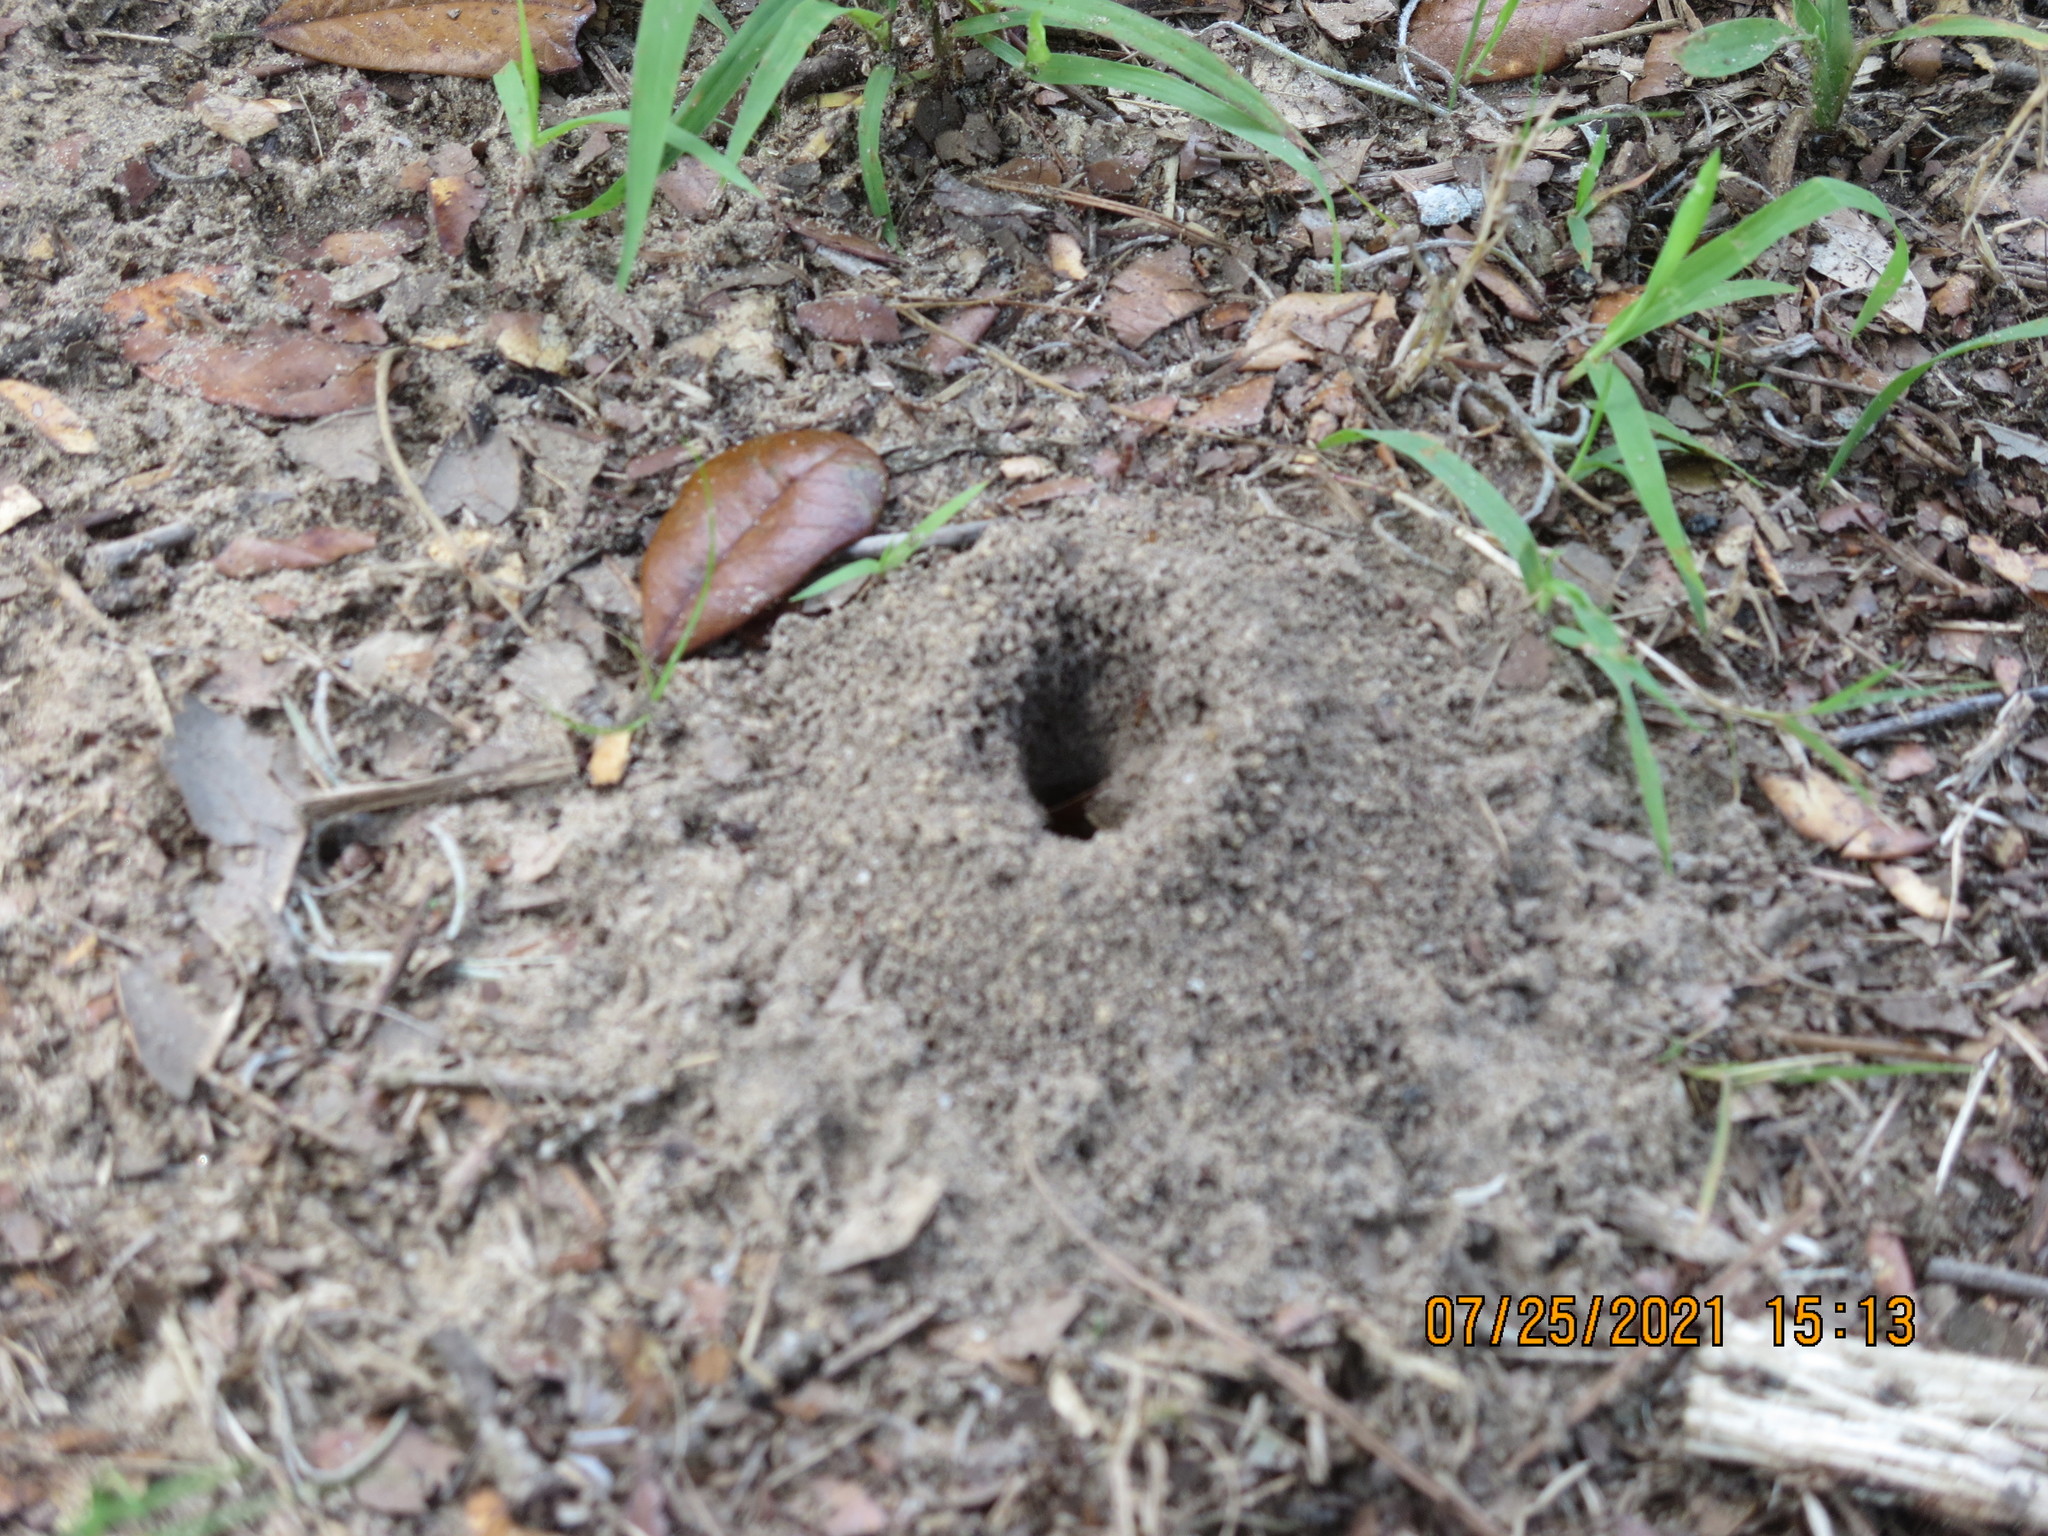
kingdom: Animalia
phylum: Arthropoda
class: Insecta
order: Hymenoptera
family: Formicidae
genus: Trachymyrmex
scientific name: Trachymyrmex septentrionalis
